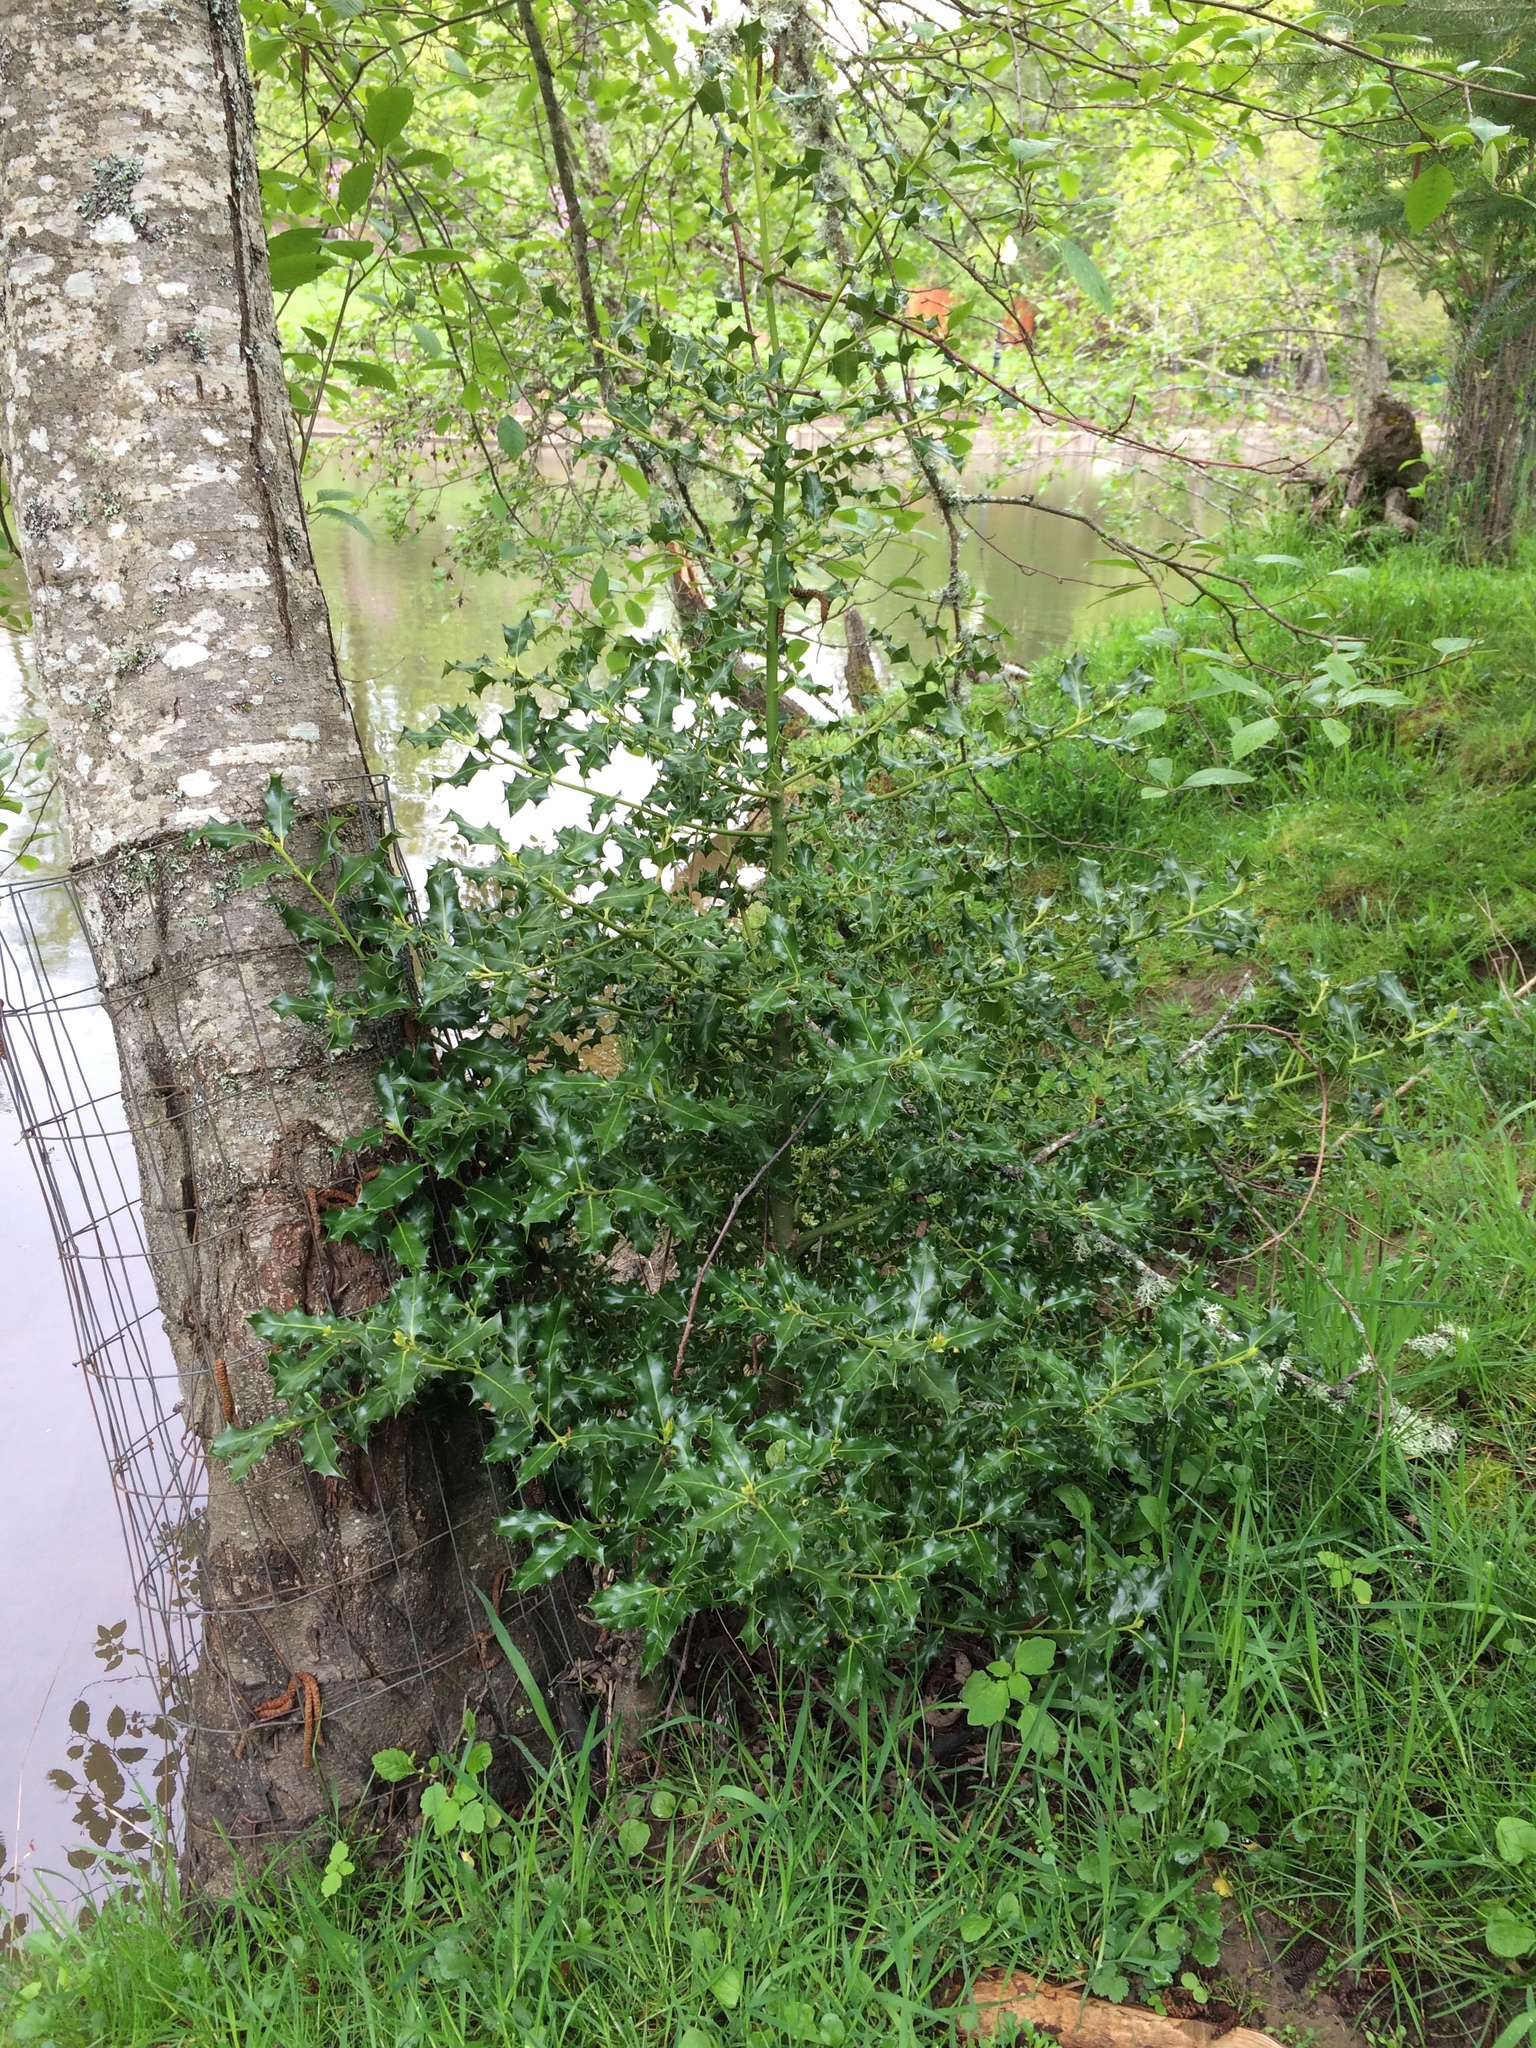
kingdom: Plantae
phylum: Tracheophyta
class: Magnoliopsida
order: Aquifoliales
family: Aquifoliaceae
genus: Ilex
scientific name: Ilex aquifolium
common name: English holly
